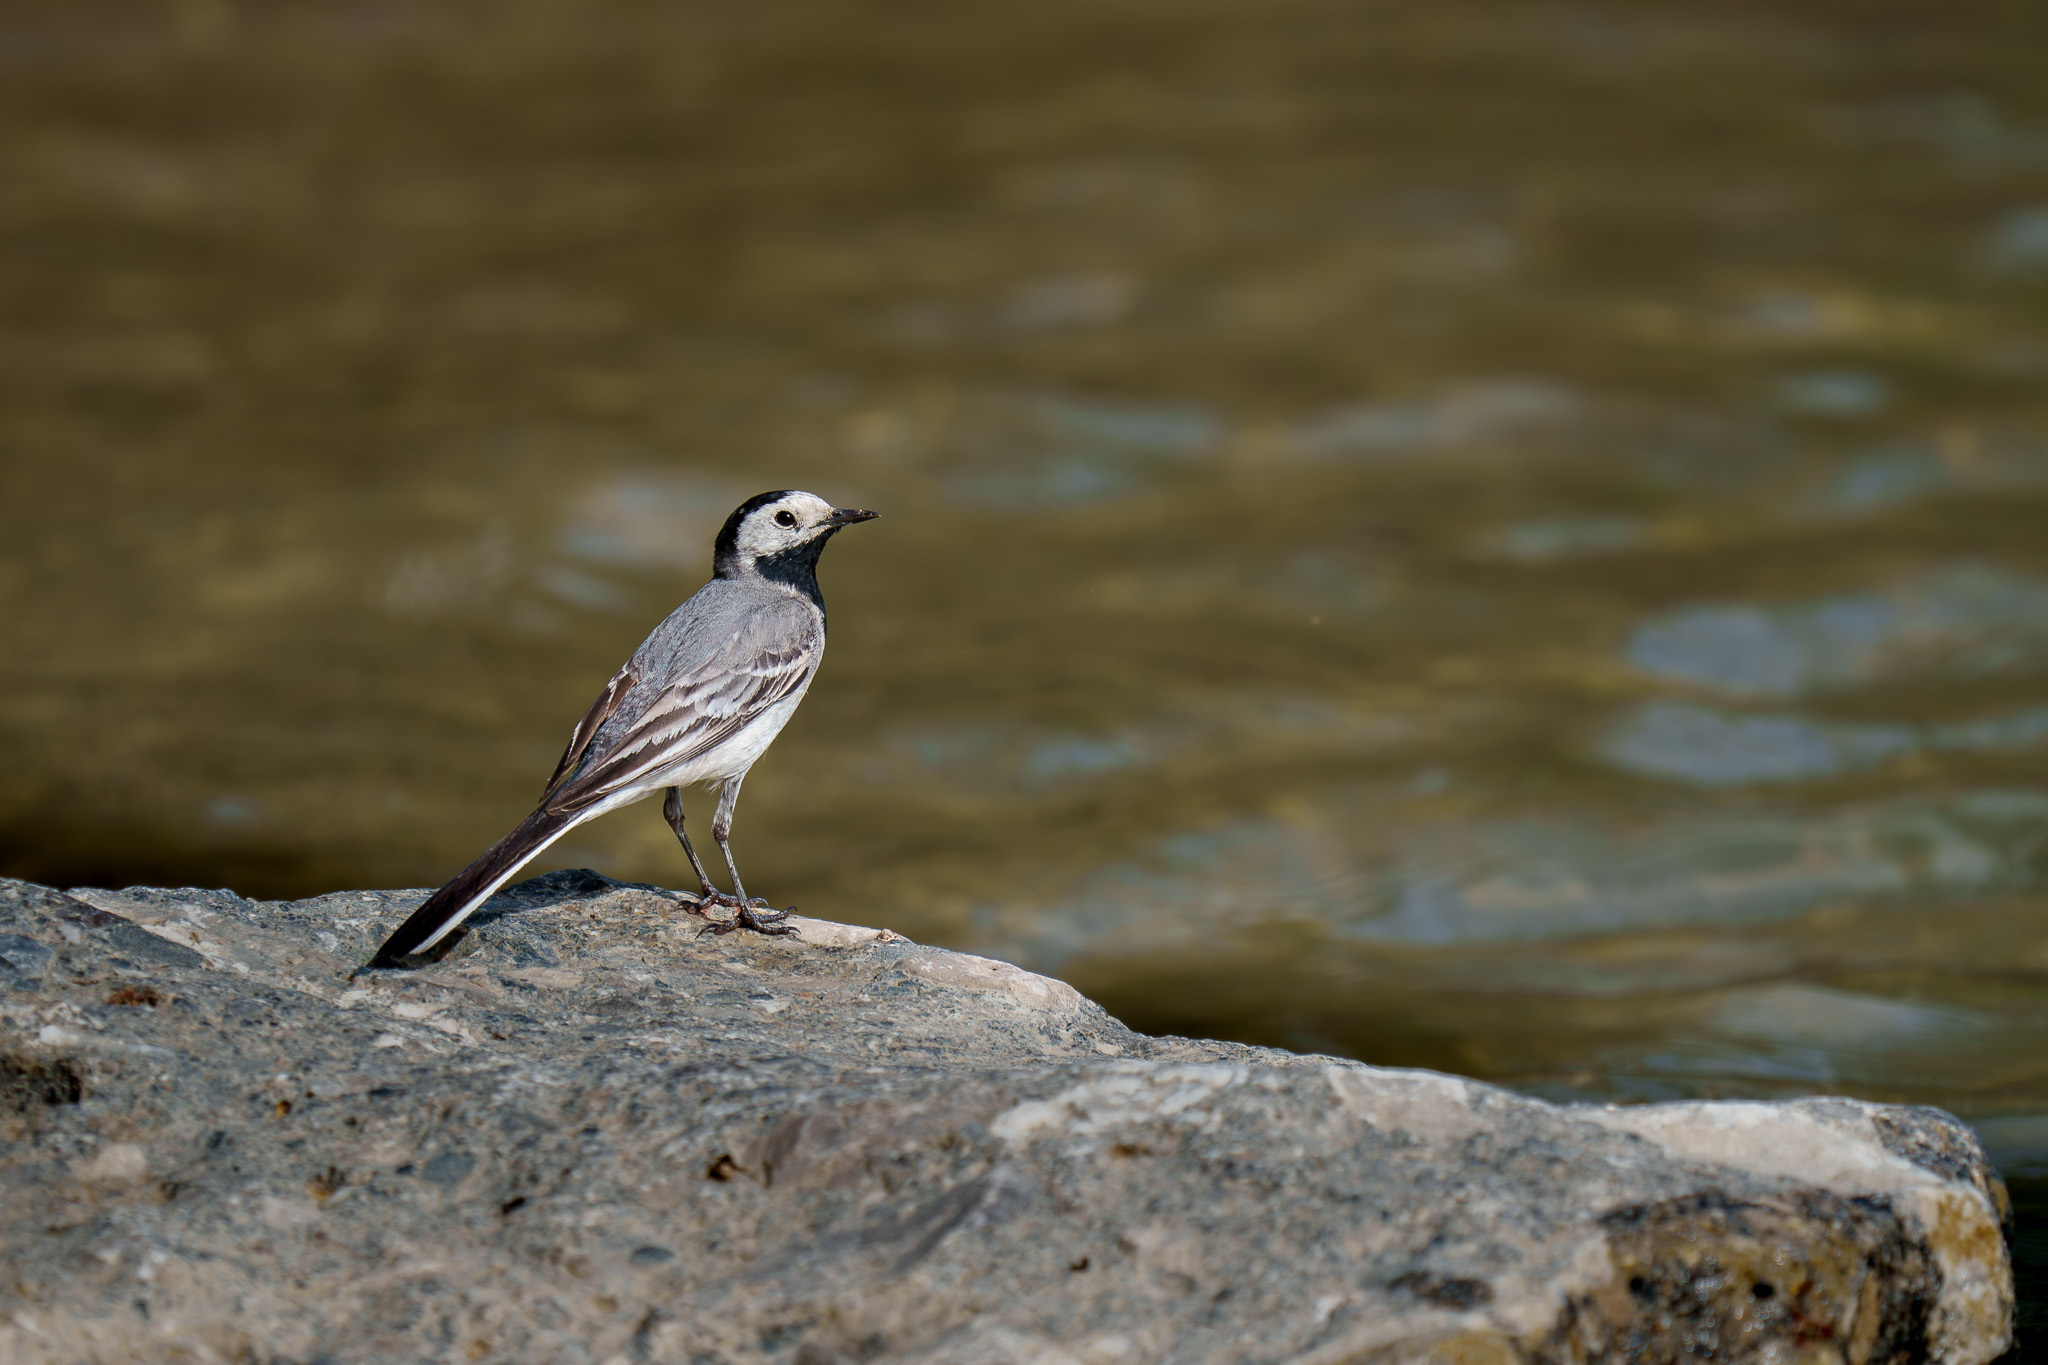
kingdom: Animalia
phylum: Chordata
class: Aves
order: Passeriformes
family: Motacillidae
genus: Motacilla
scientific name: Motacilla alba
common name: White wagtail
